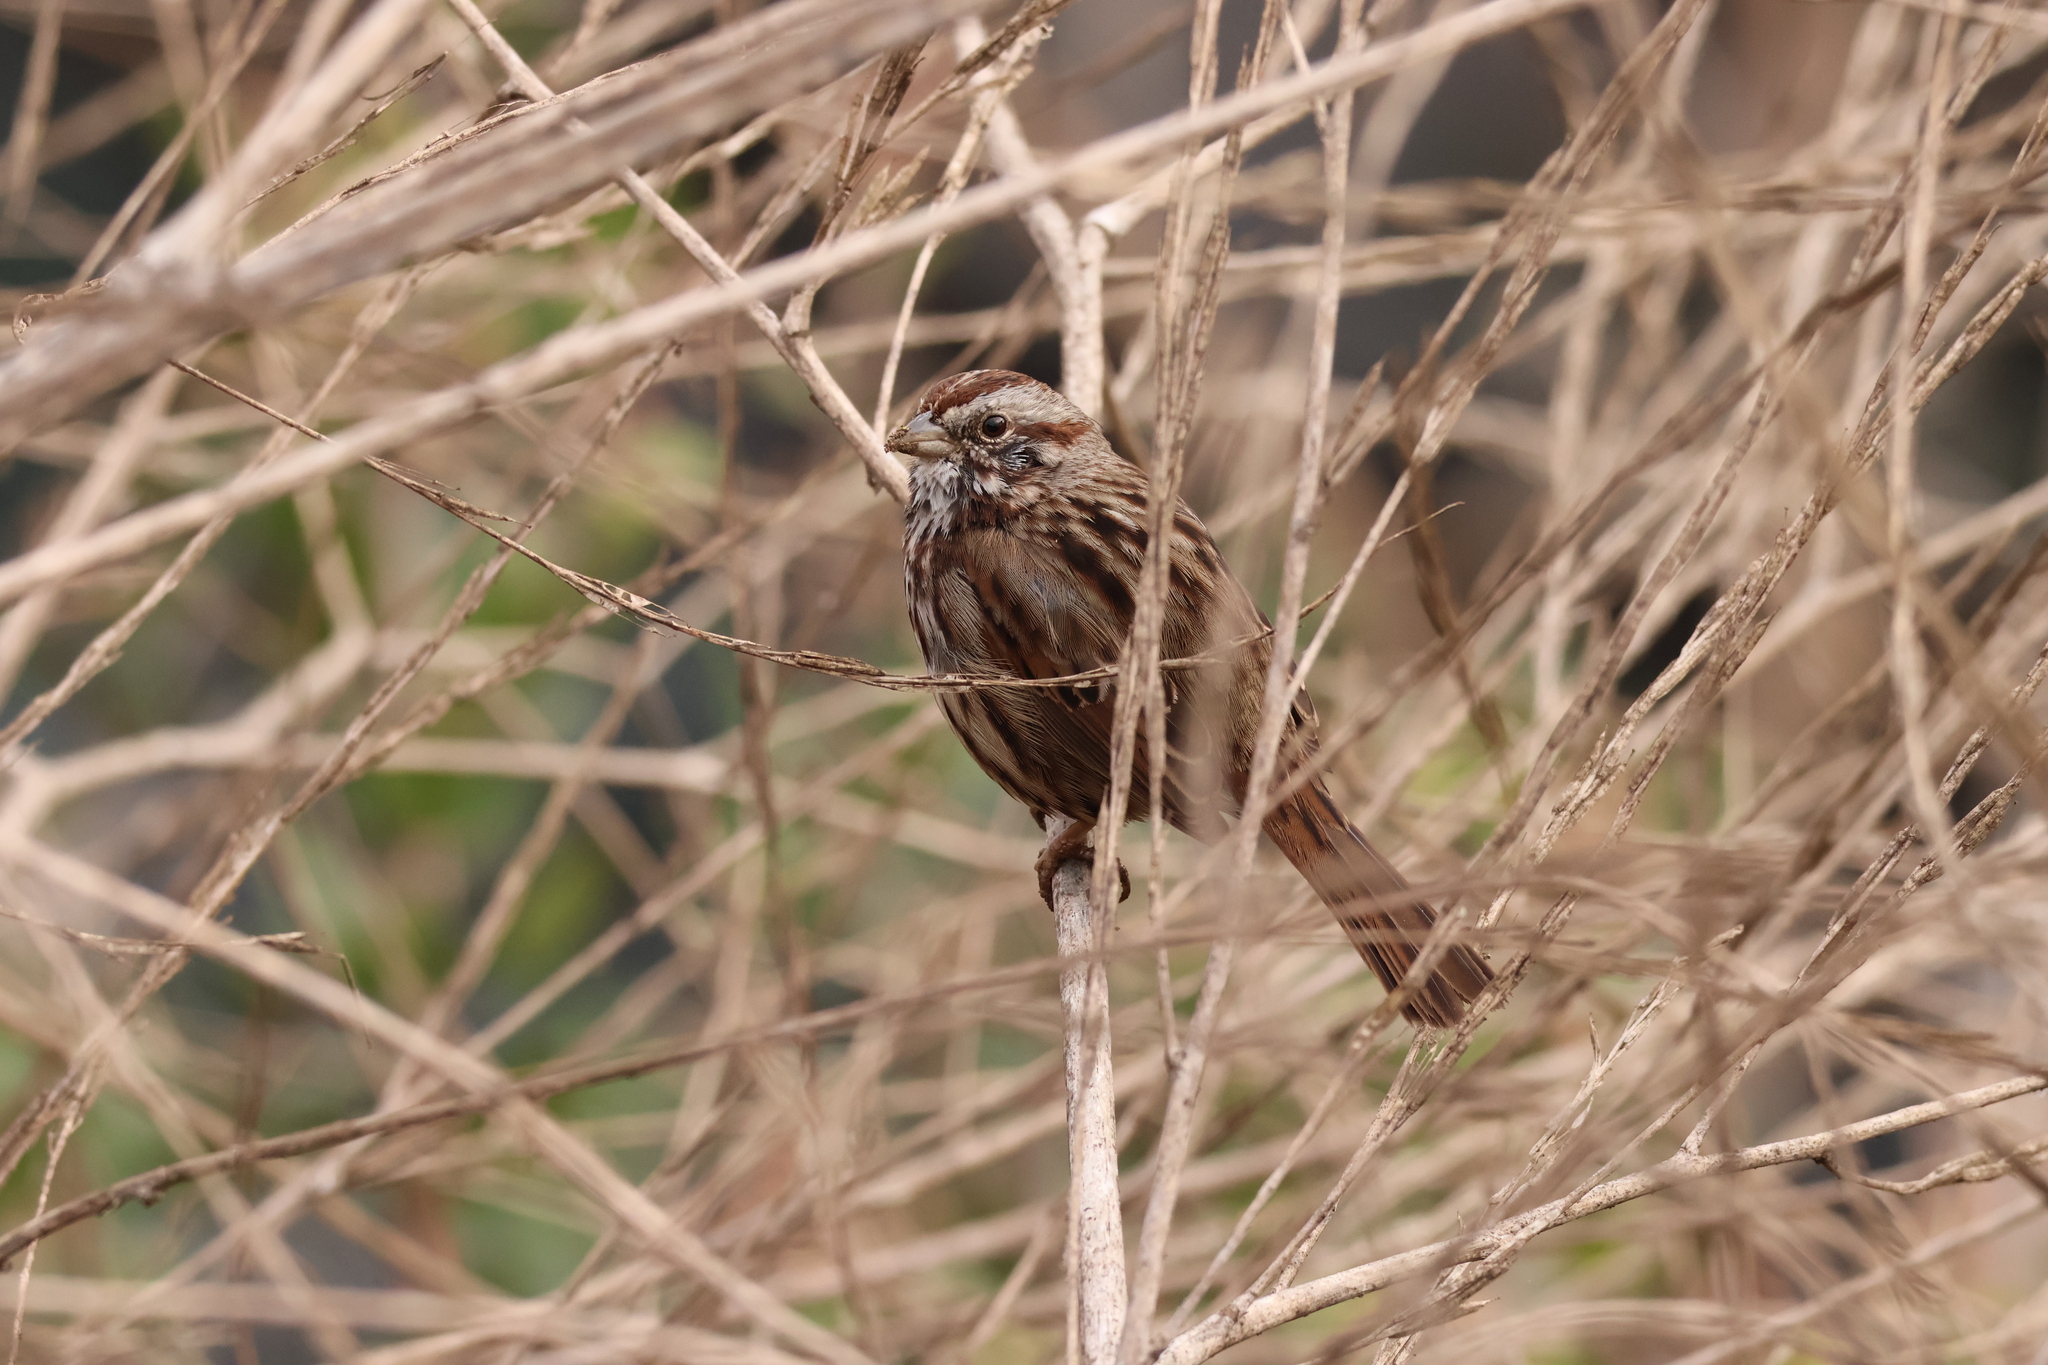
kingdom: Animalia
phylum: Chordata
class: Aves
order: Passeriformes
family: Passerellidae
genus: Melospiza
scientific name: Melospiza melodia
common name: Song sparrow
